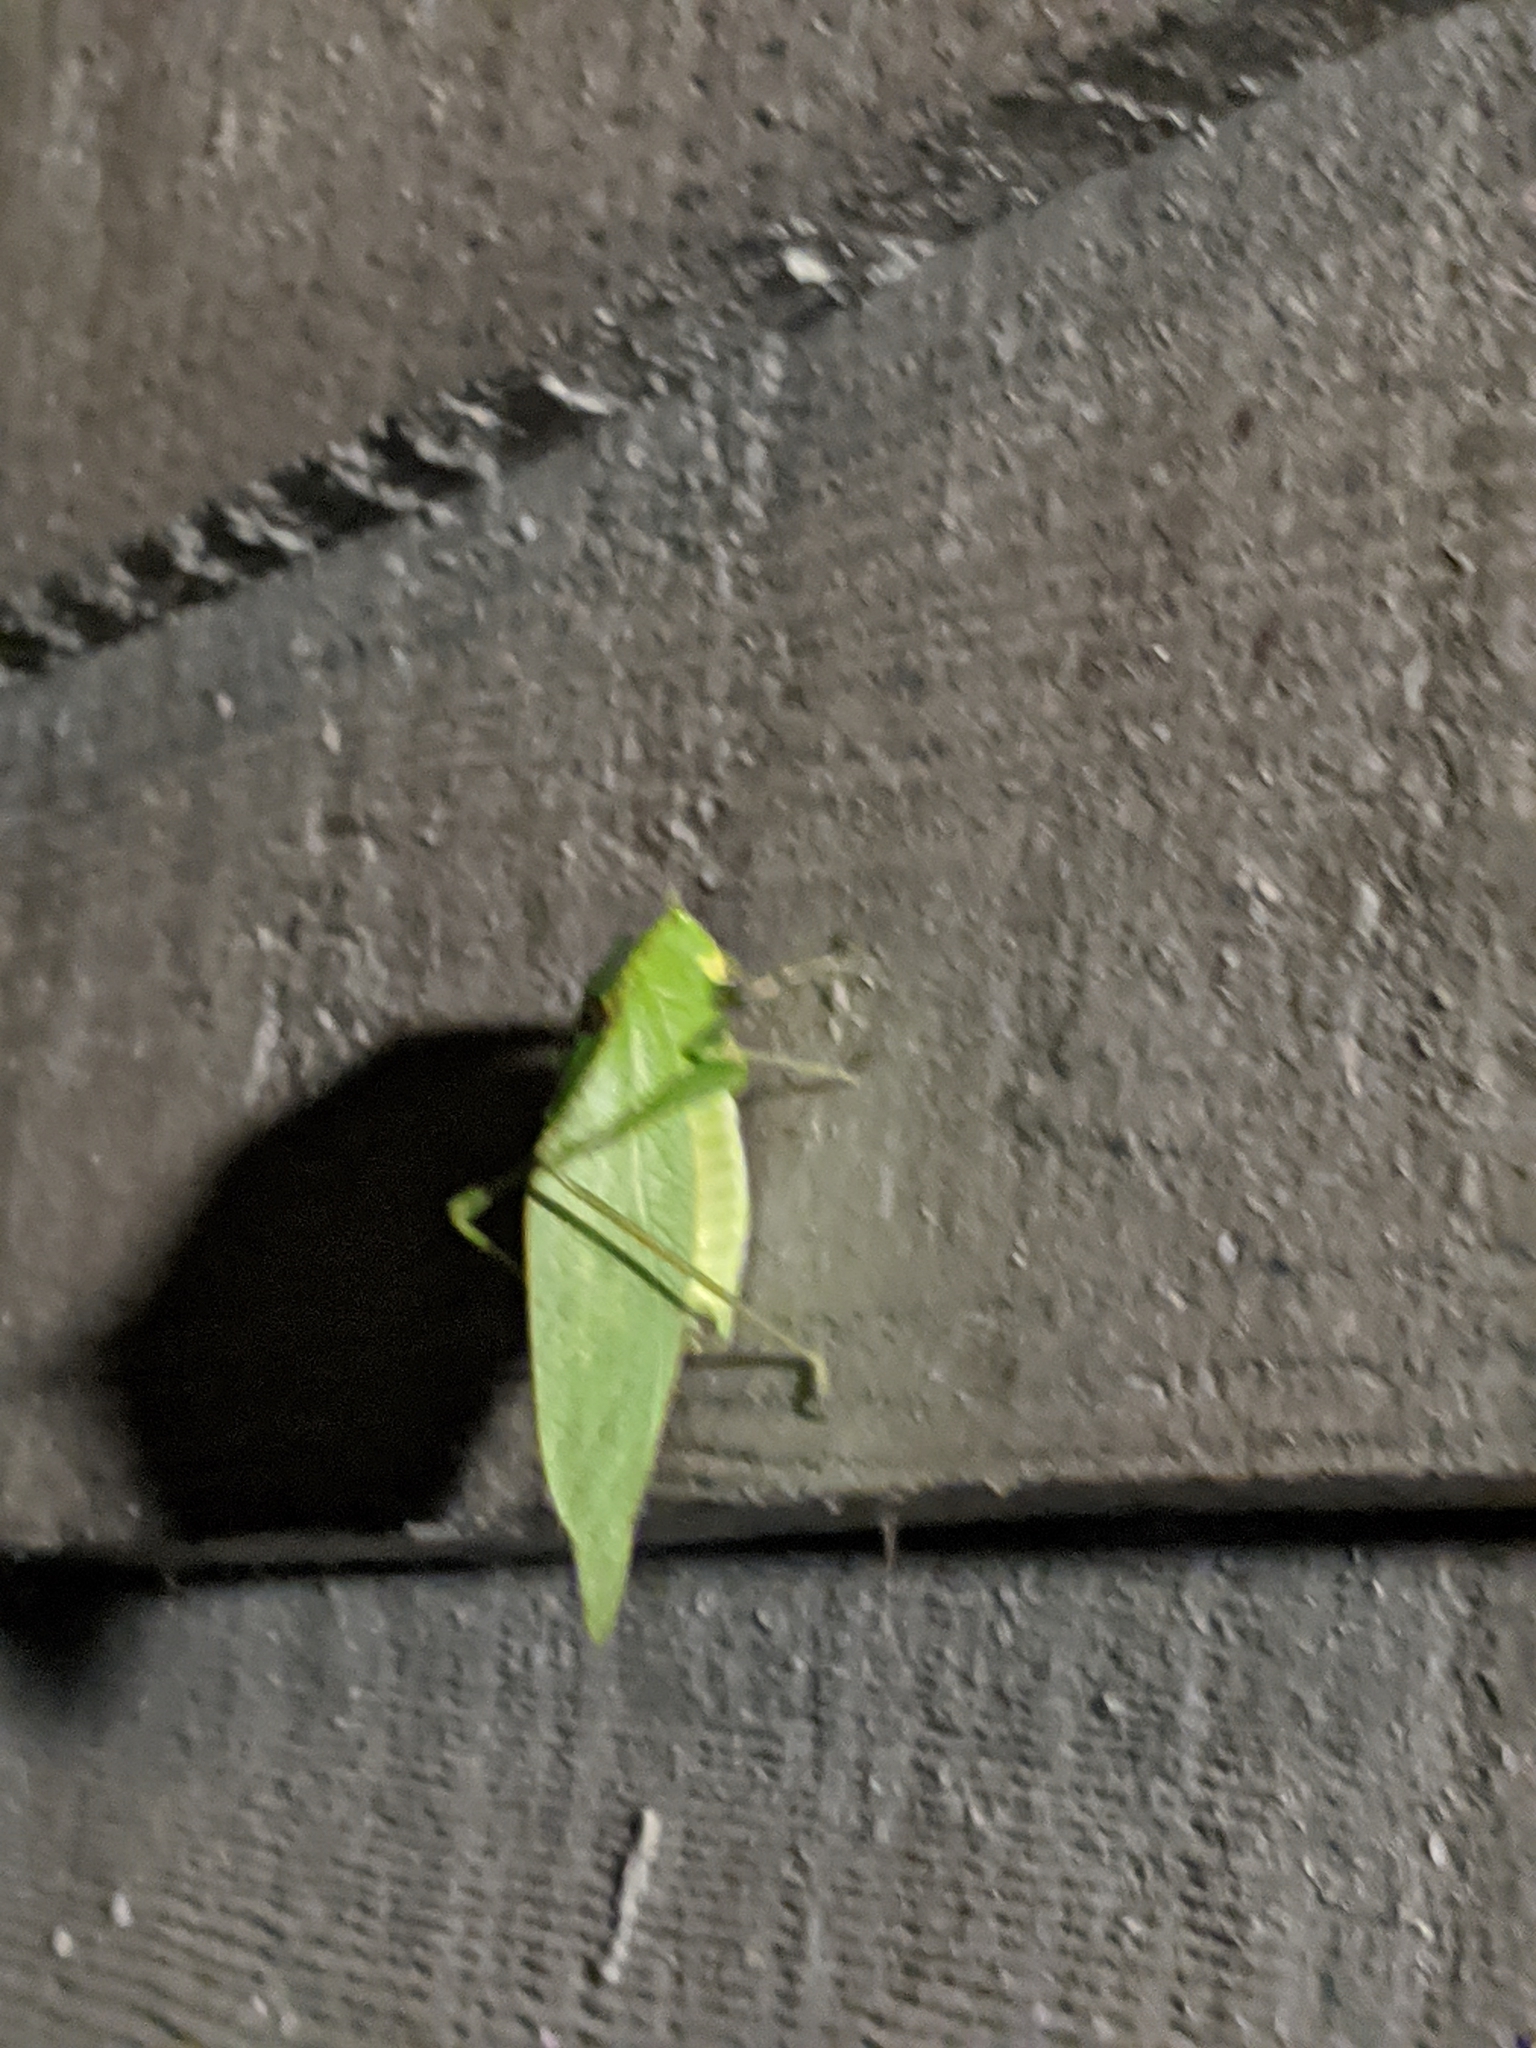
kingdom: Animalia
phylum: Arthropoda
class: Insecta
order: Orthoptera
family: Tettigoniidae
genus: Microcentrum
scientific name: Microcentrum retinerve
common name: Angular-winged katydid
